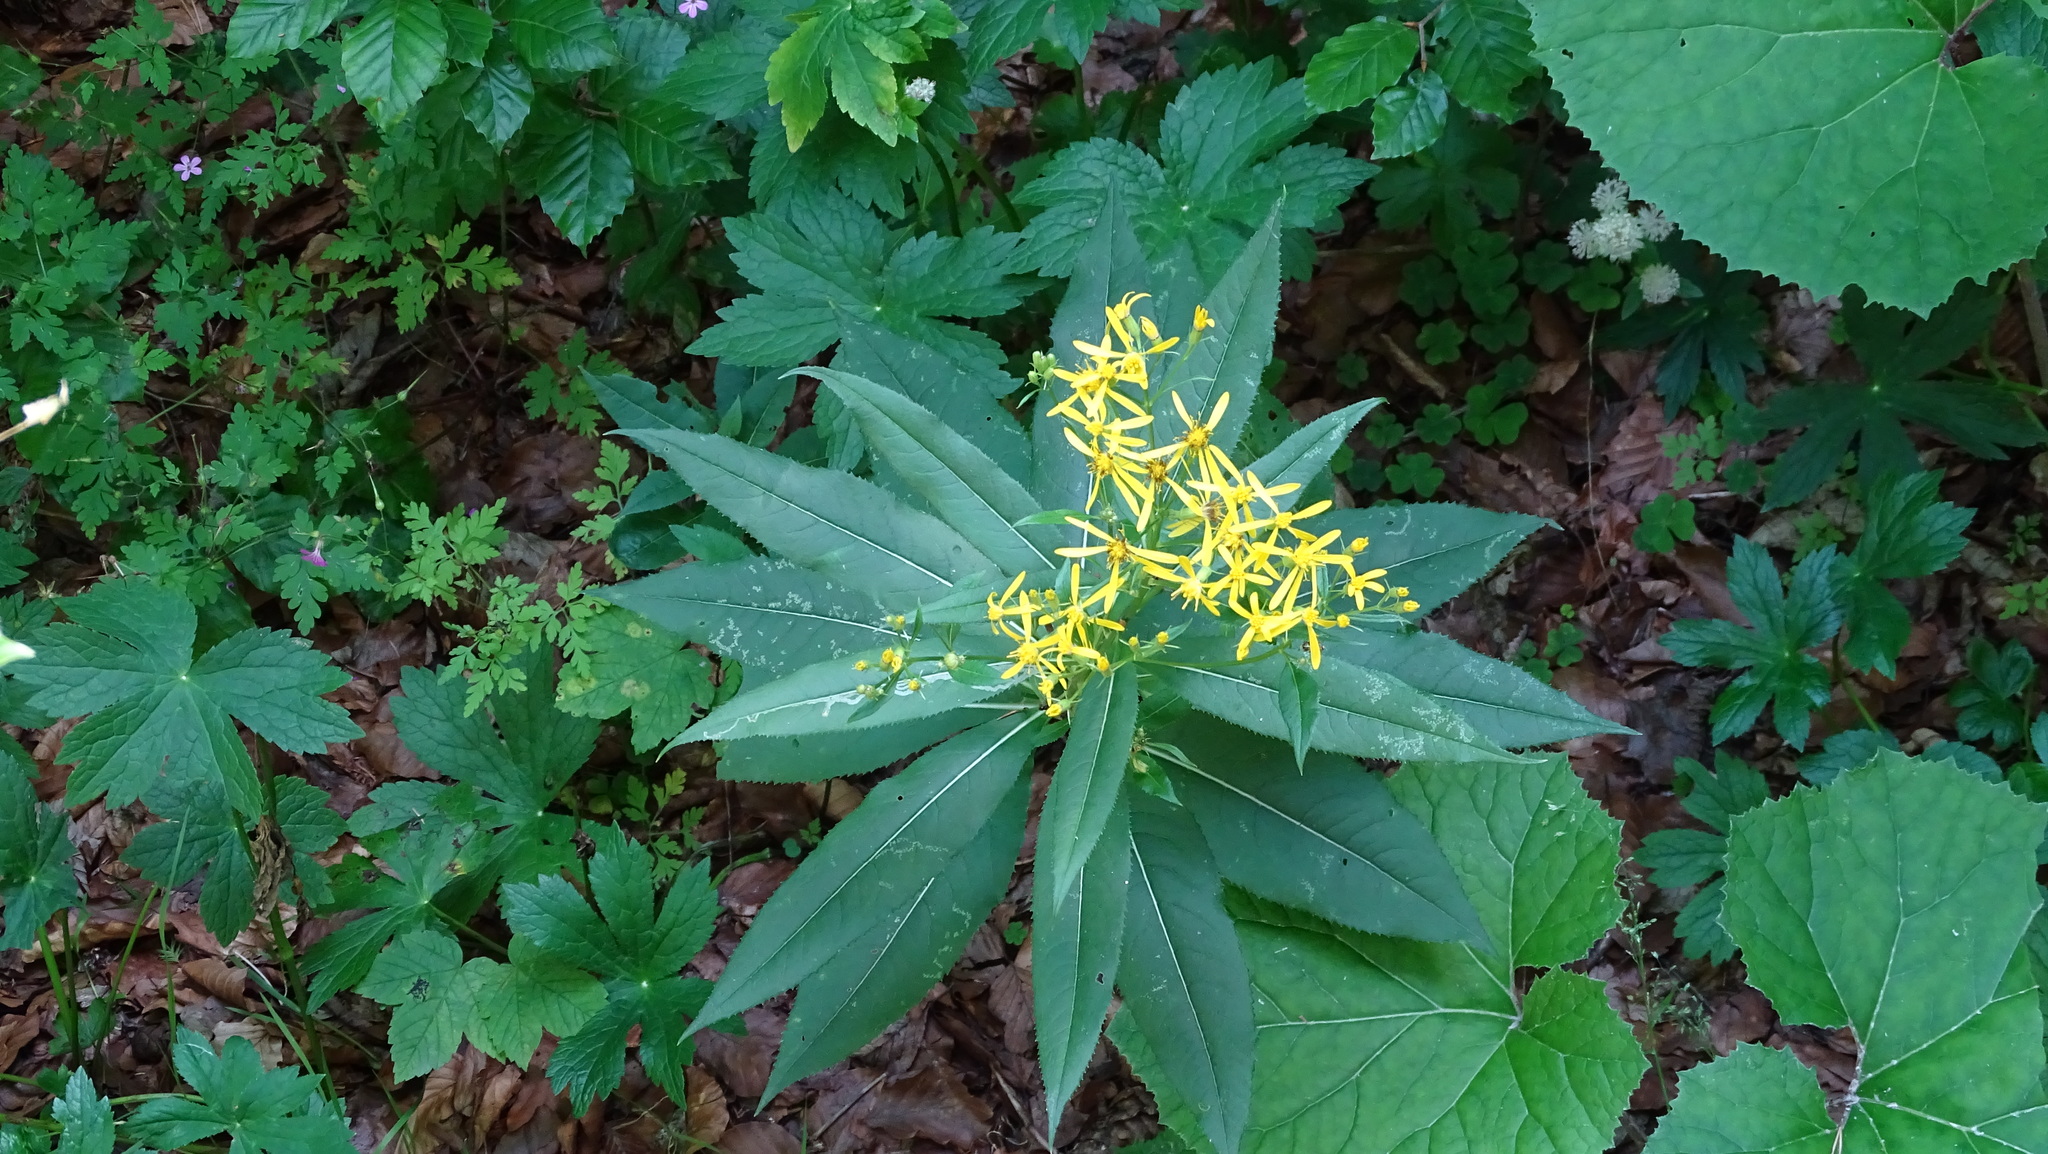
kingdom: Plantae
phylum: Tracheophyta
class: Magnoliopsida
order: Asterales
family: Asteraceae
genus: Senecio
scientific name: Senecio ovatus
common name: Wood ragwort
